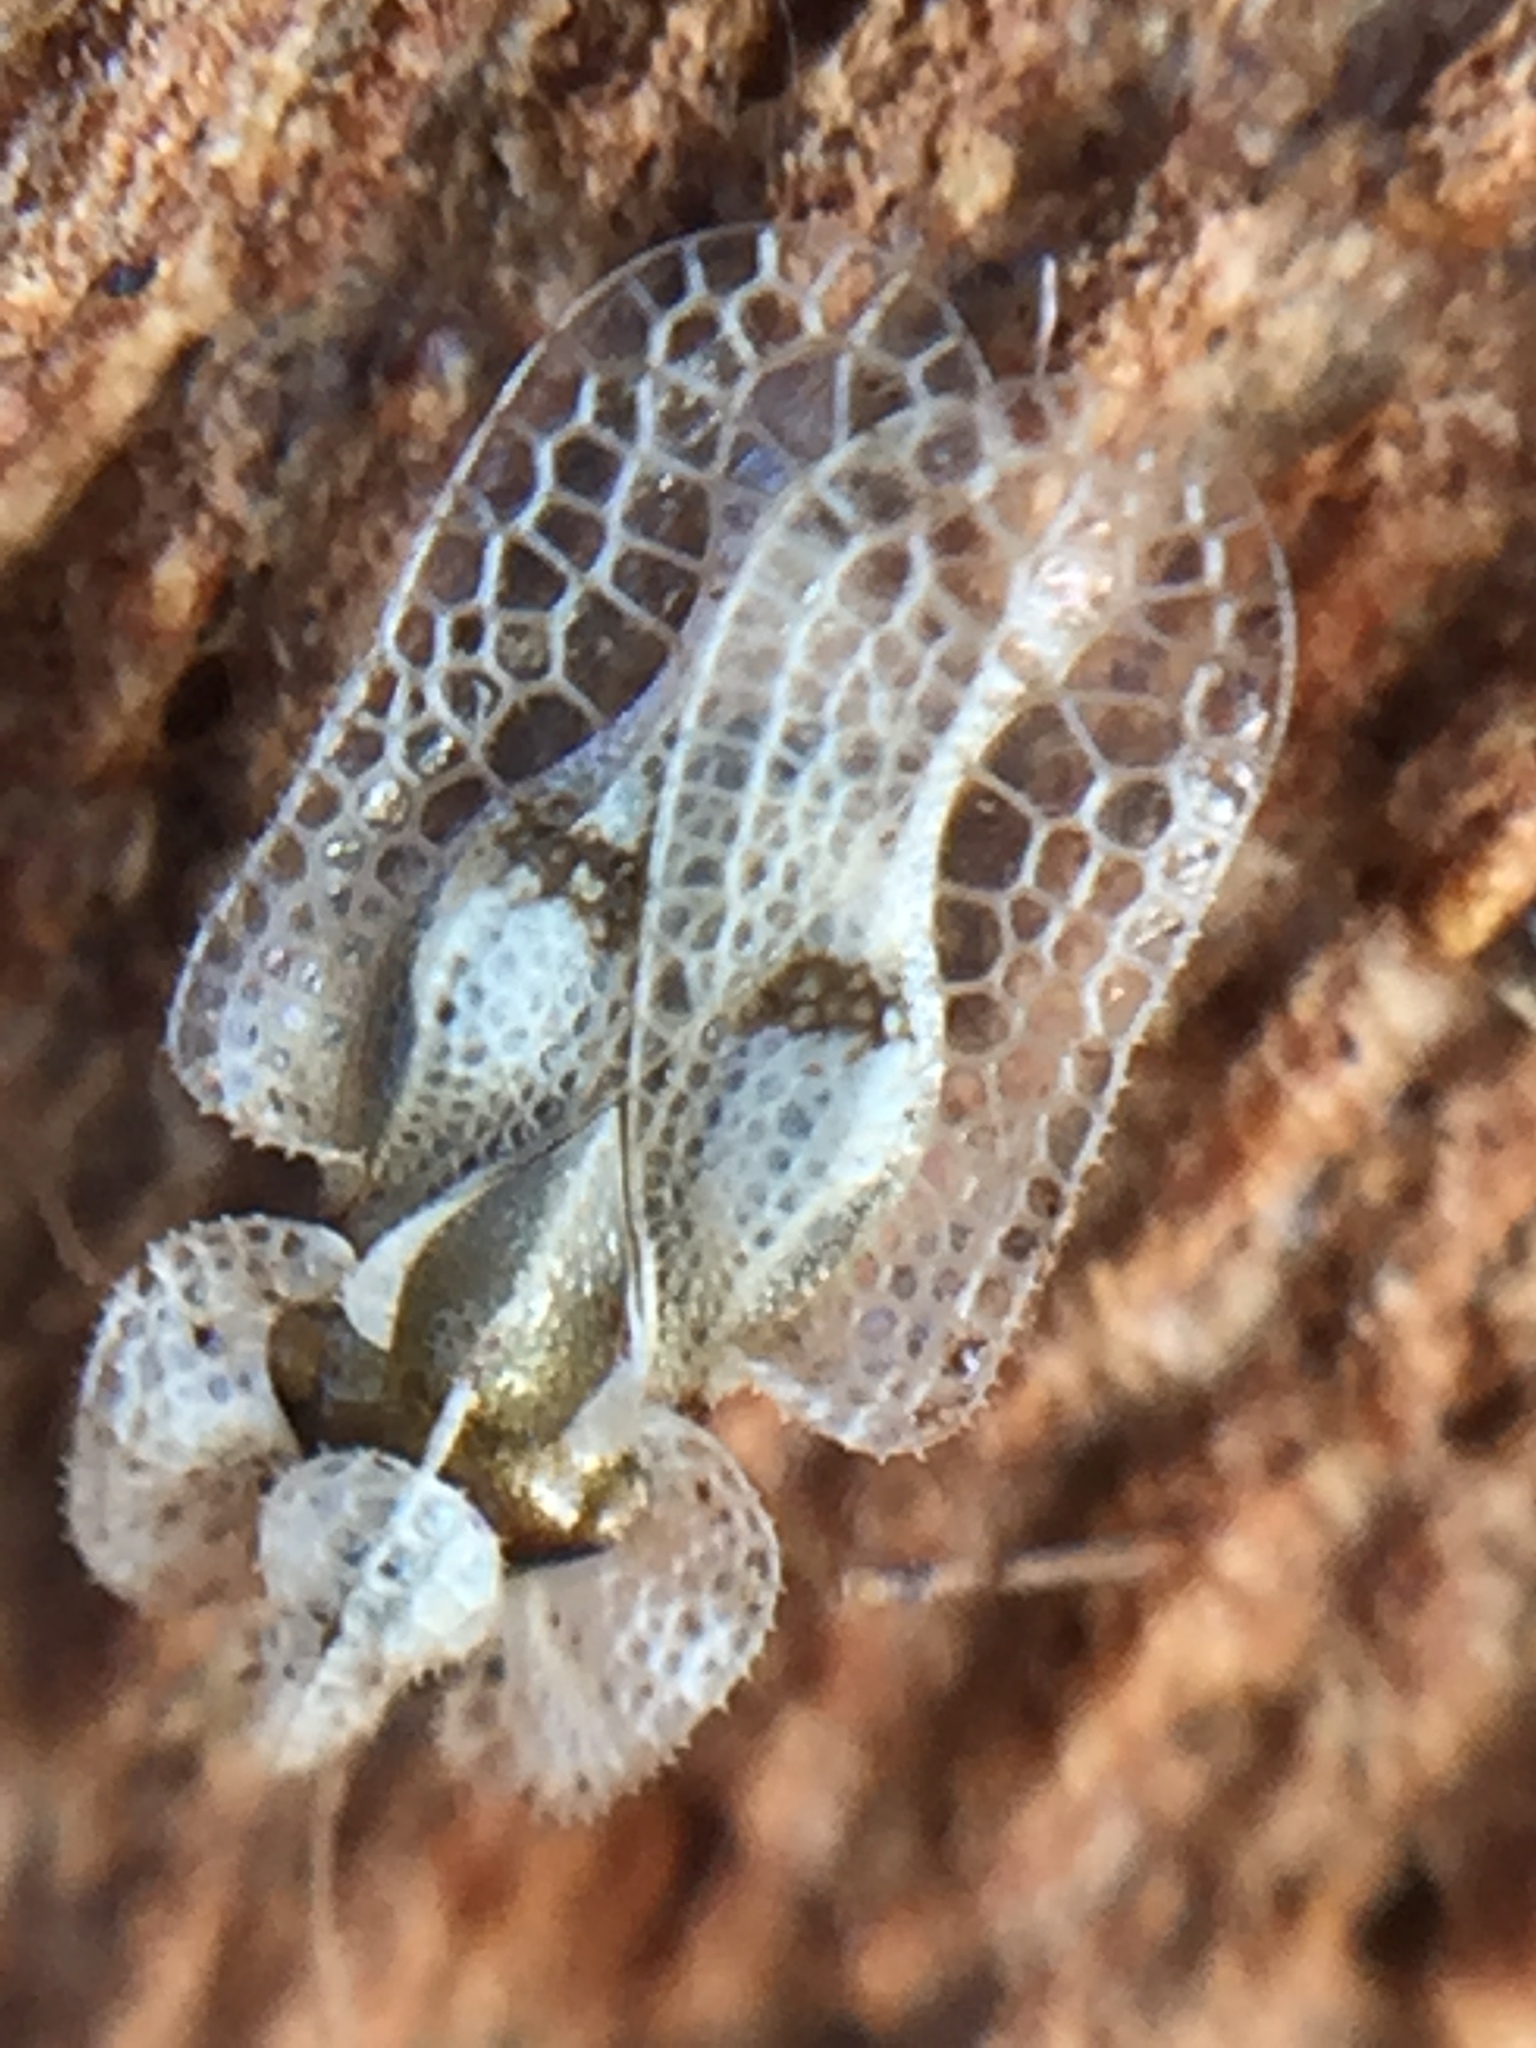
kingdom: Animalia
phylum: Arthropoda
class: Insecta
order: Hemiptera
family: Tingidae
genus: Corythucha
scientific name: Corythucha ciliata
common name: Sycamore lace bug
